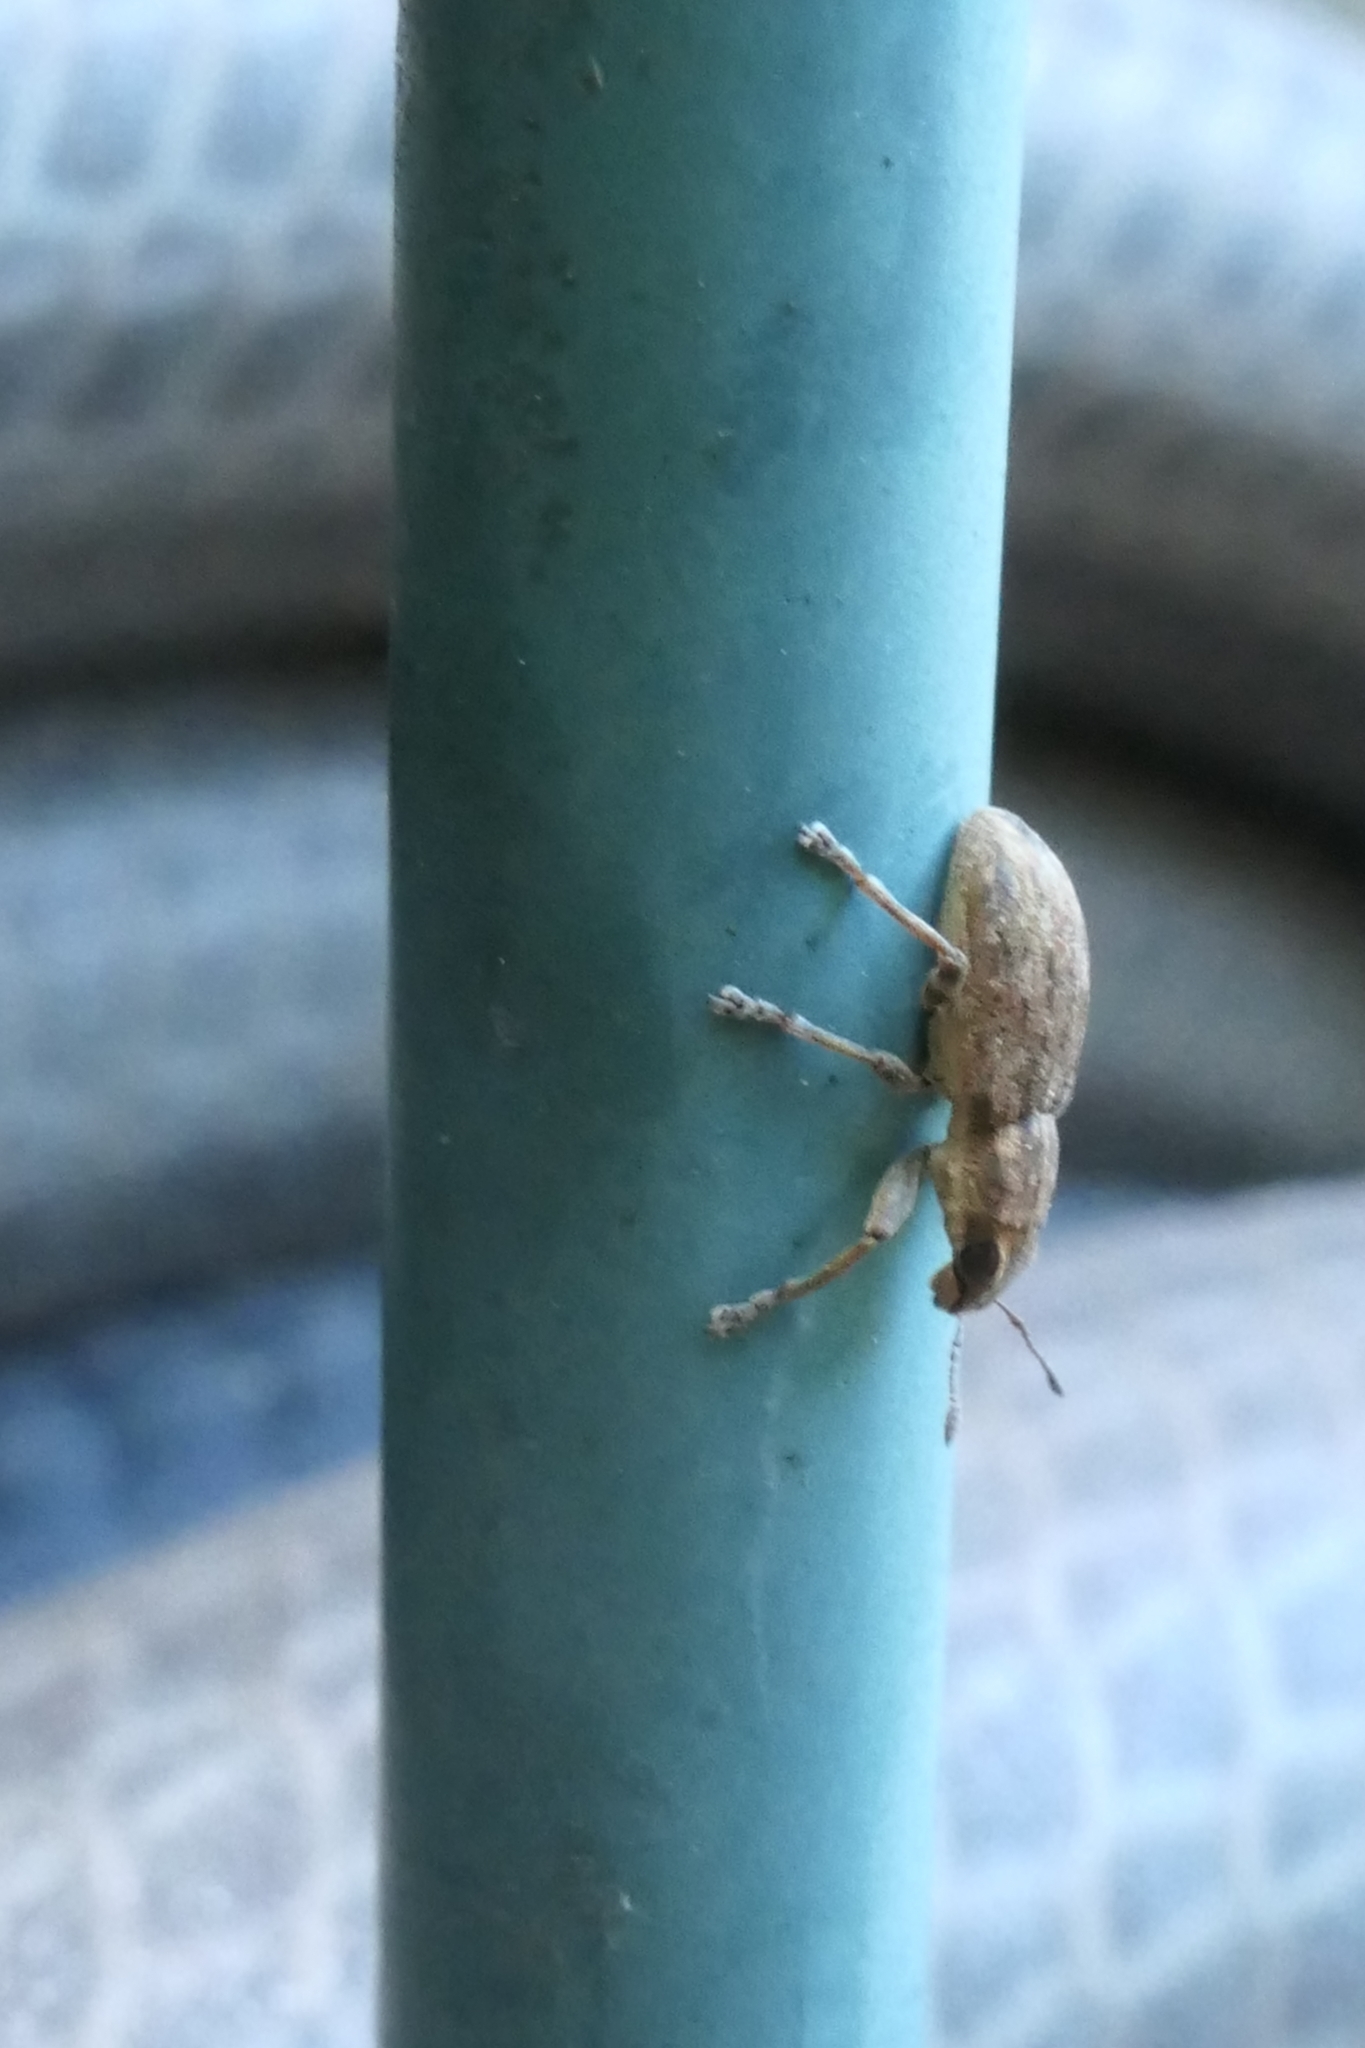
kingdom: Animalia
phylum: Arthropoda
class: Insecta
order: Coleoptera
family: Curculionidae
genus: Sitona
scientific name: Sitona obsoletus
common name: Weevil
